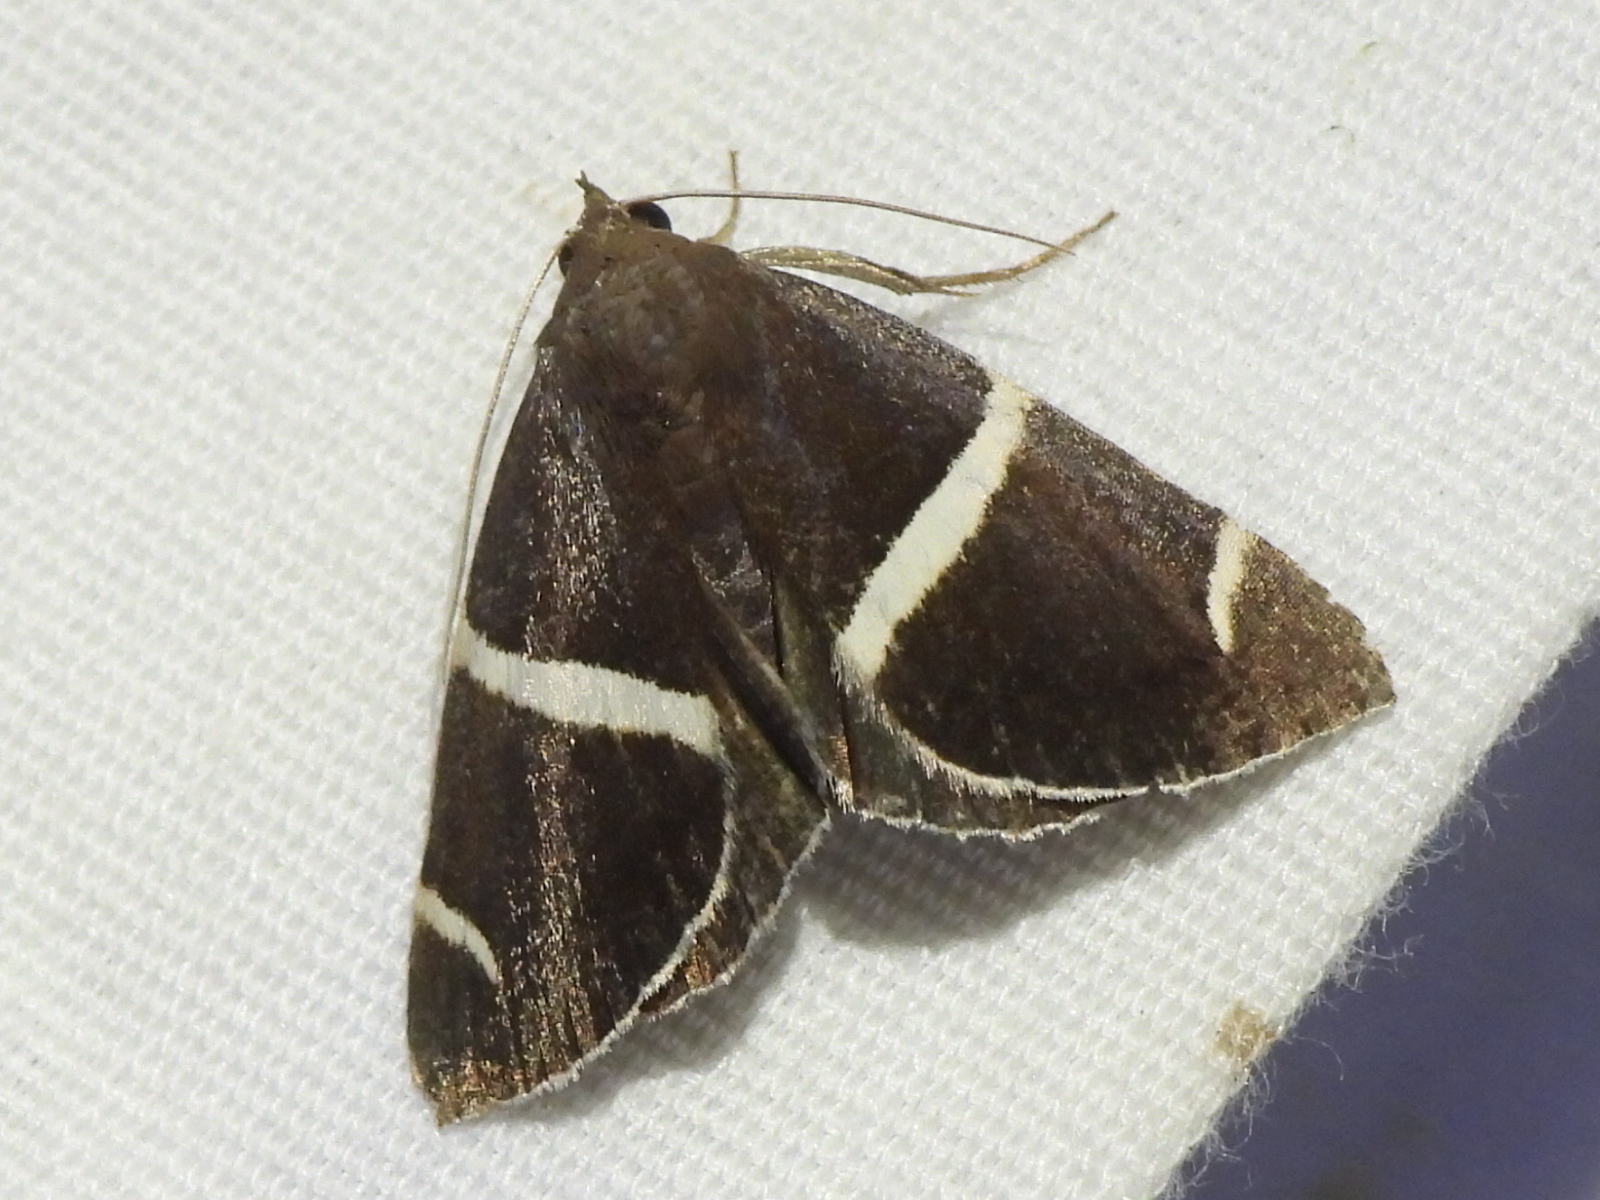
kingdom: Animalia
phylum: Arthropoda
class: Insecta
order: Lepidoptera
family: Erebidae
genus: Argyrostrotis
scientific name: Argyrostrotis anilis
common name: Short-lined chocolate
